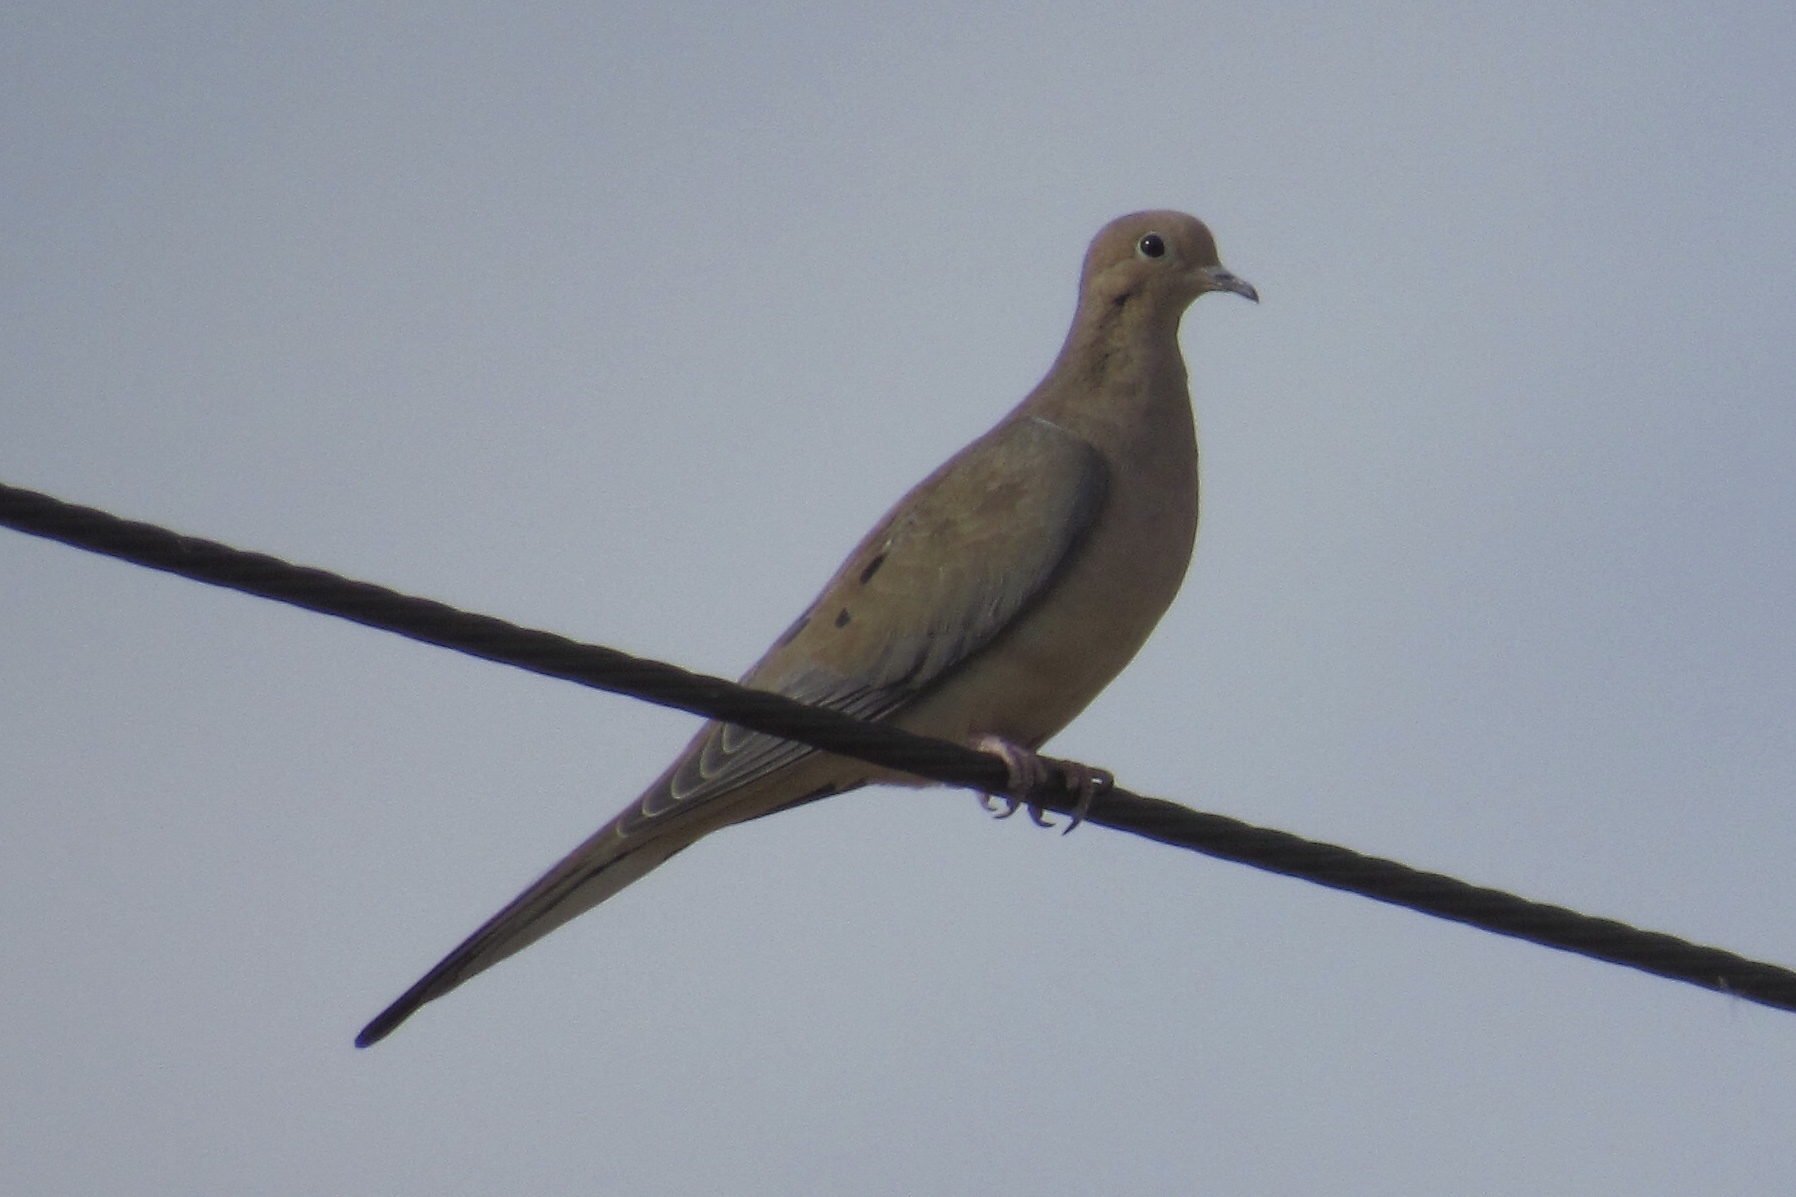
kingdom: Animalia
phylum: Chordata
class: Aves
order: Columbiformes
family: Columbidae
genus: Zenaida
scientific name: Zenaida macroura
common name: Mourning dove
